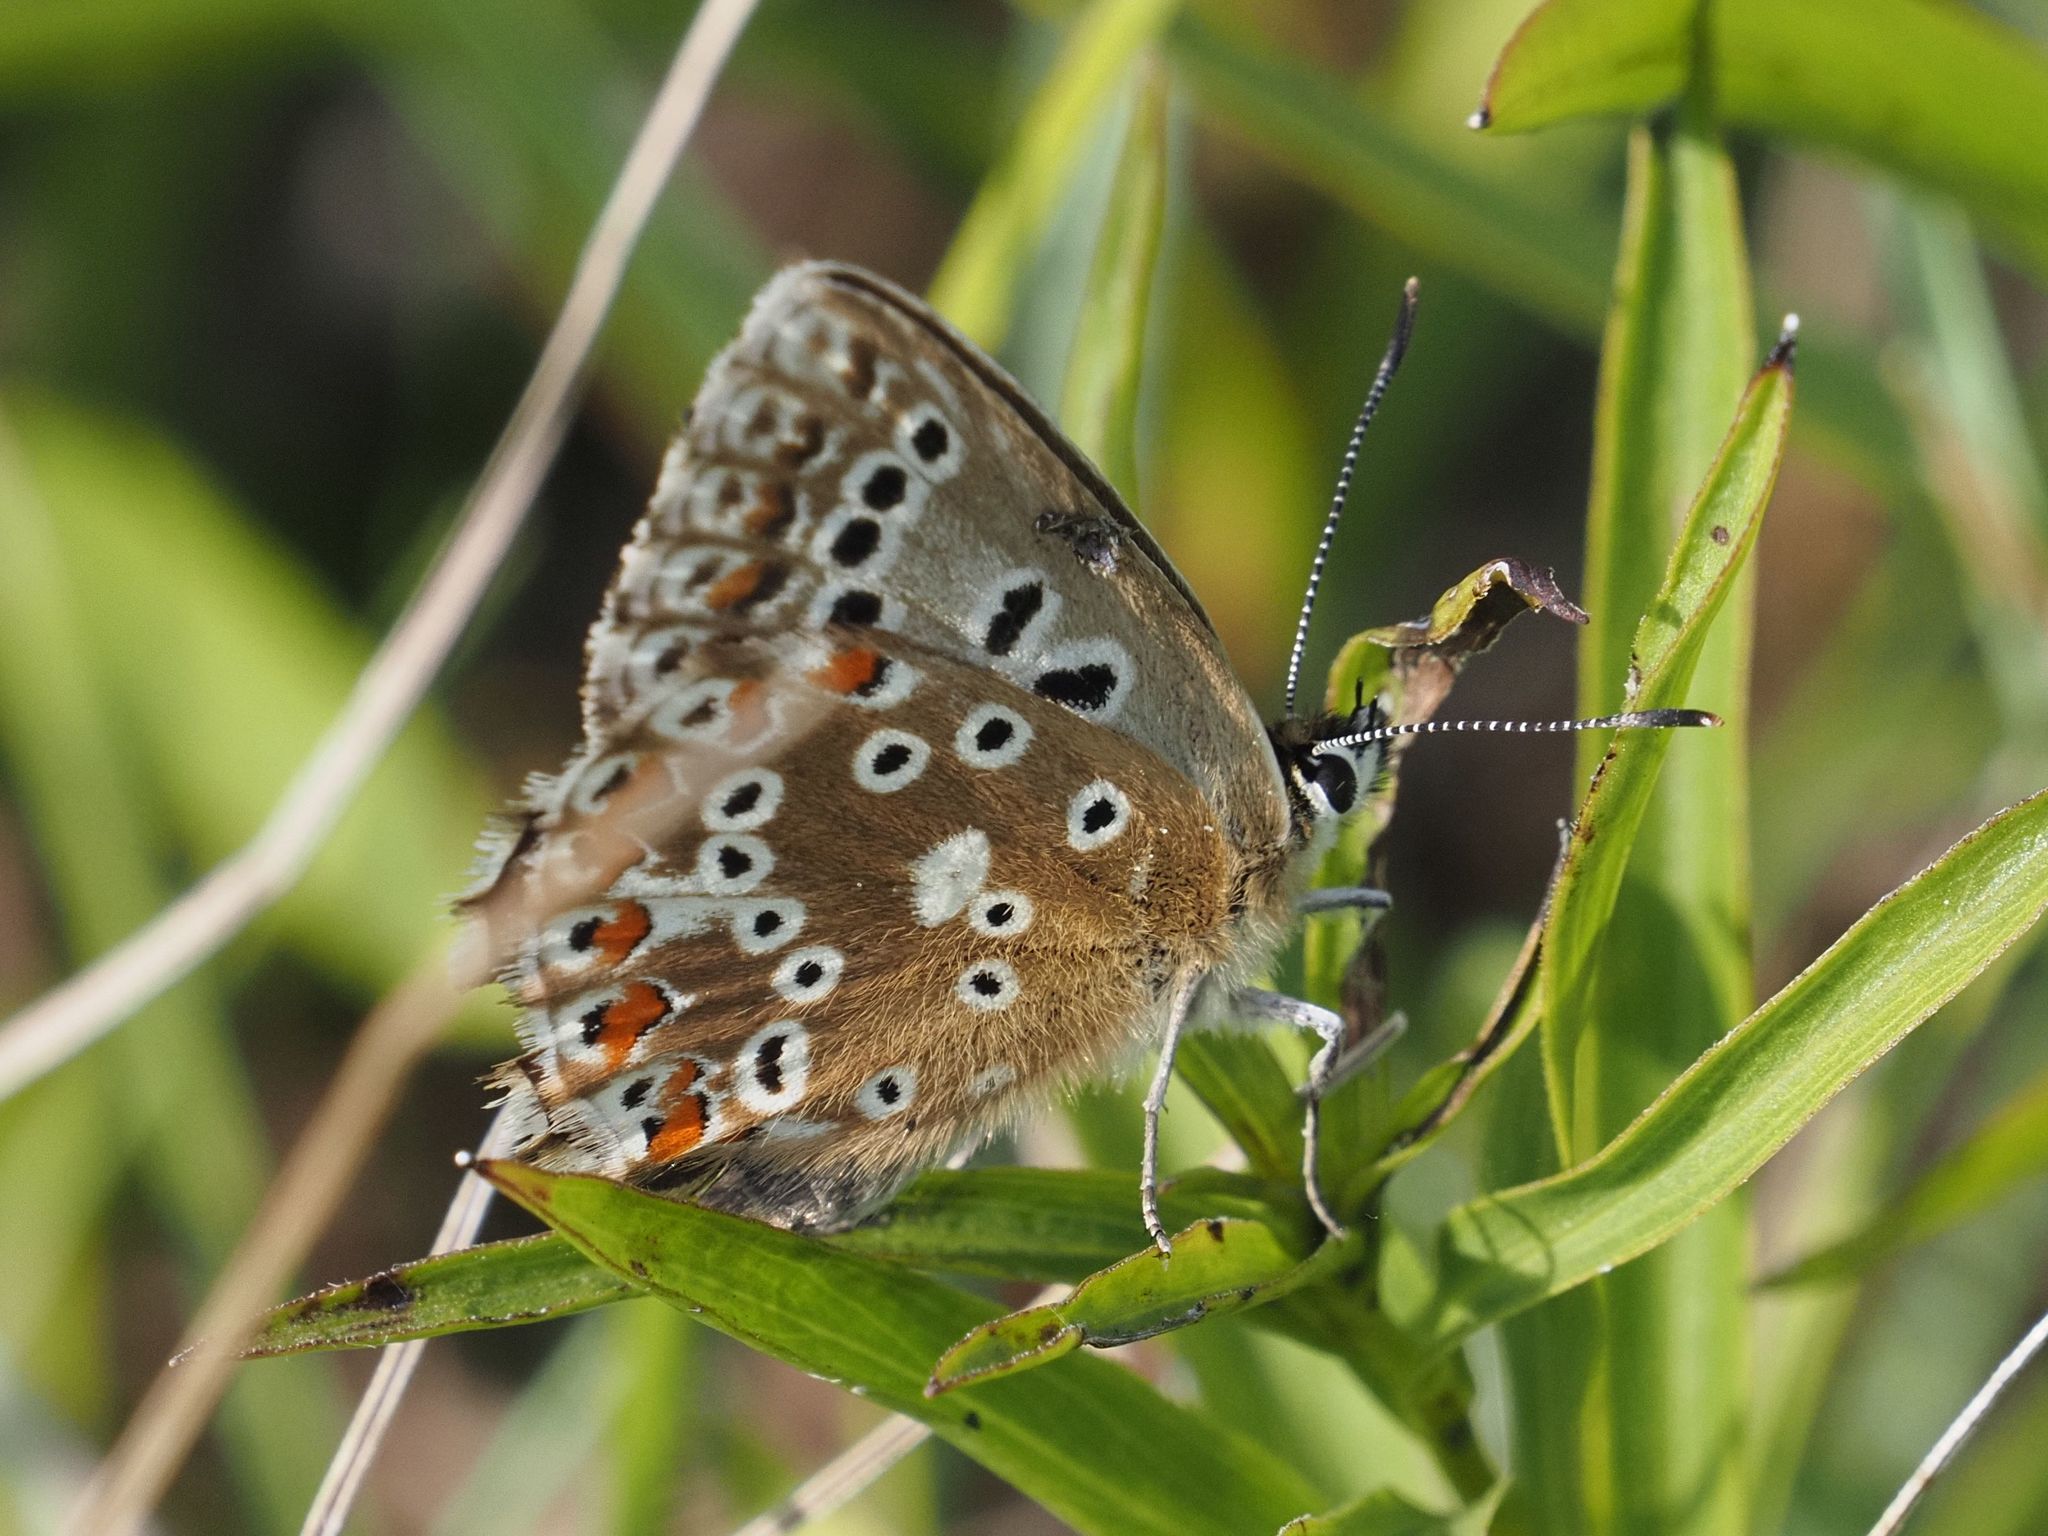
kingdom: Animalia
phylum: Arthropoda
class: Insecta
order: Lepidoptera
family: Lycaenidae
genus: Lysandra
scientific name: Lysandra coridon
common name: Chalkhill blue
